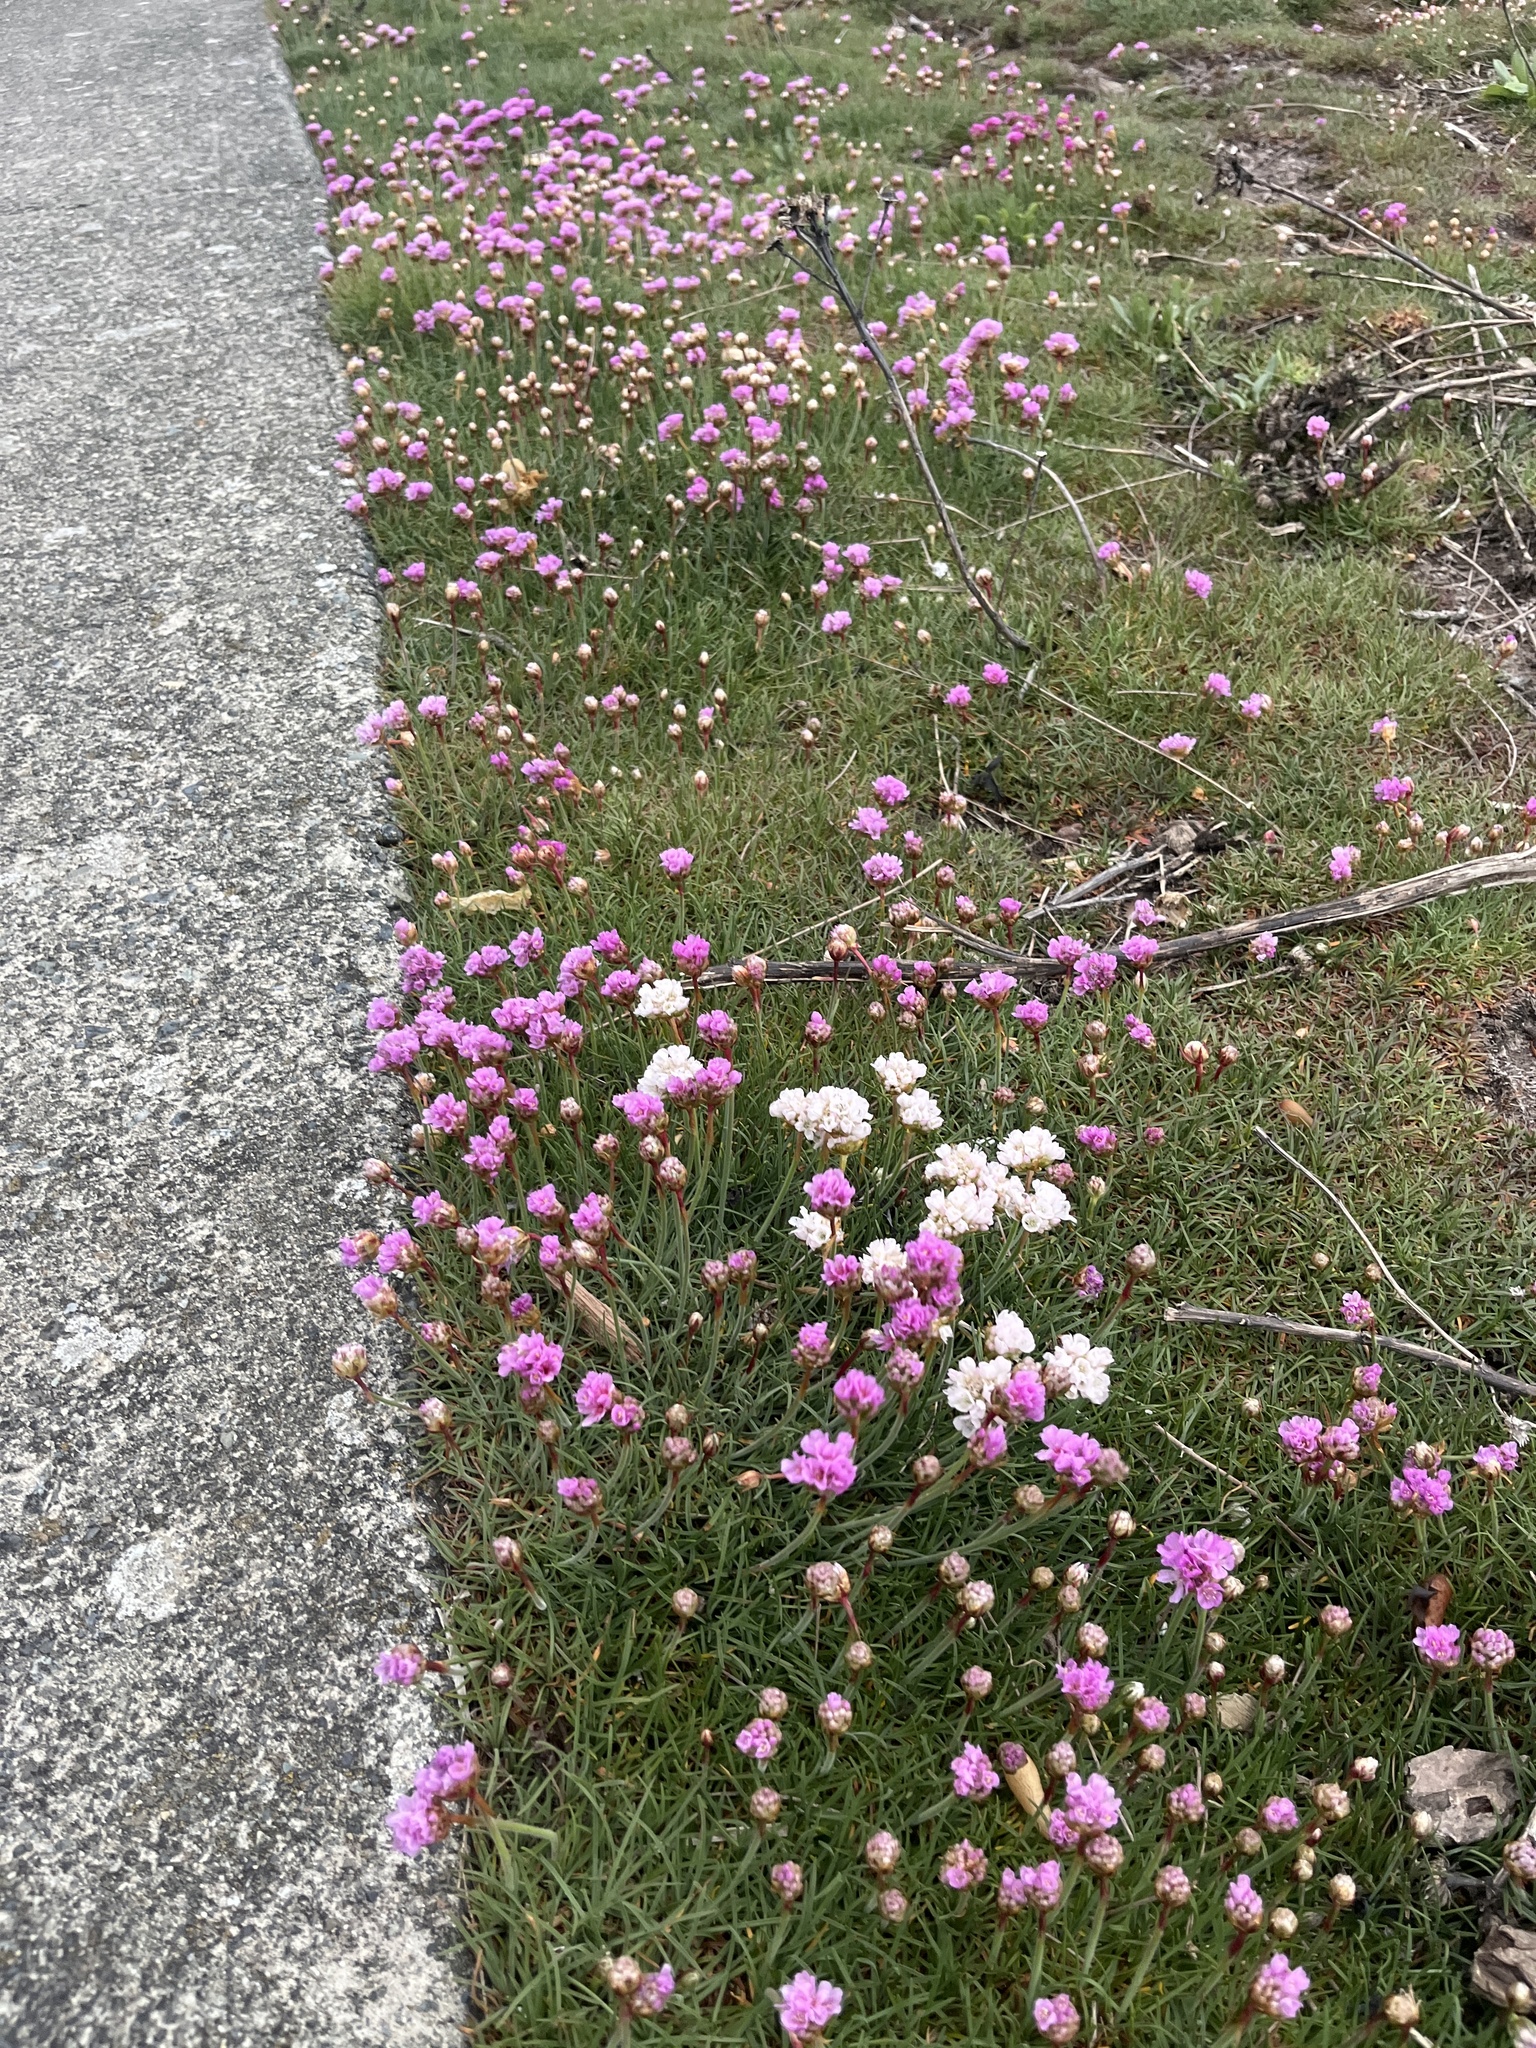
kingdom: Plantae
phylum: Tracheophyta
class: Magnoliopsida
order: Caryophyllales
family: Plumbaginaceae
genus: Armeria
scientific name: Armeria maritima
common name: Thrift
